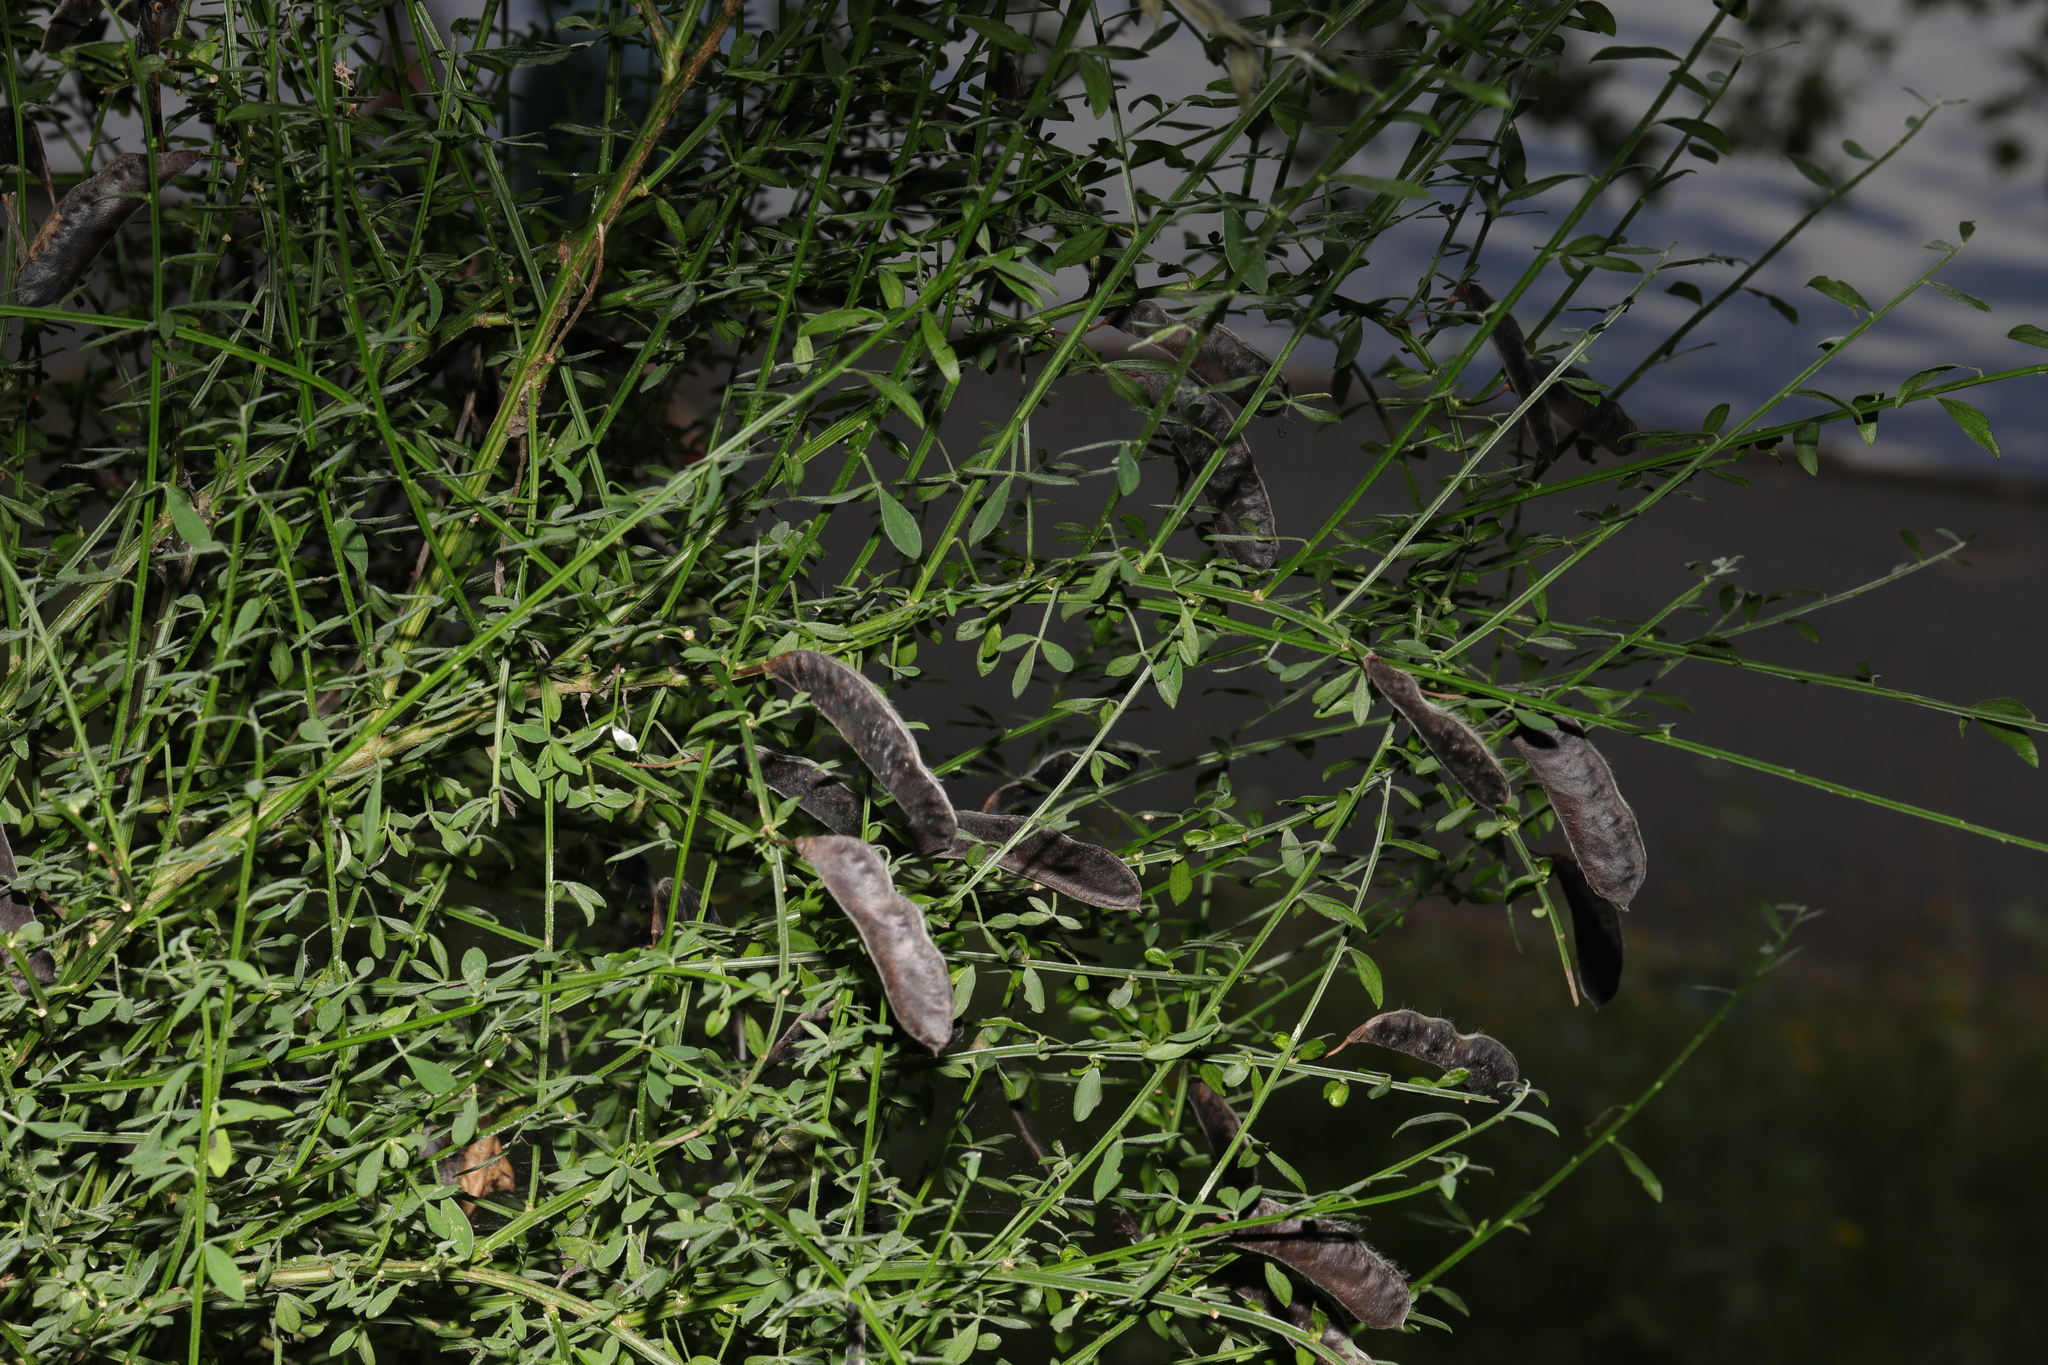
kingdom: Plantae
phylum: Tracheophyta
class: Magnoliopsida
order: Fabales
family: Fabaceae
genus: Cytisus
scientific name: Cytisus scoparius
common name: Scotch broom
